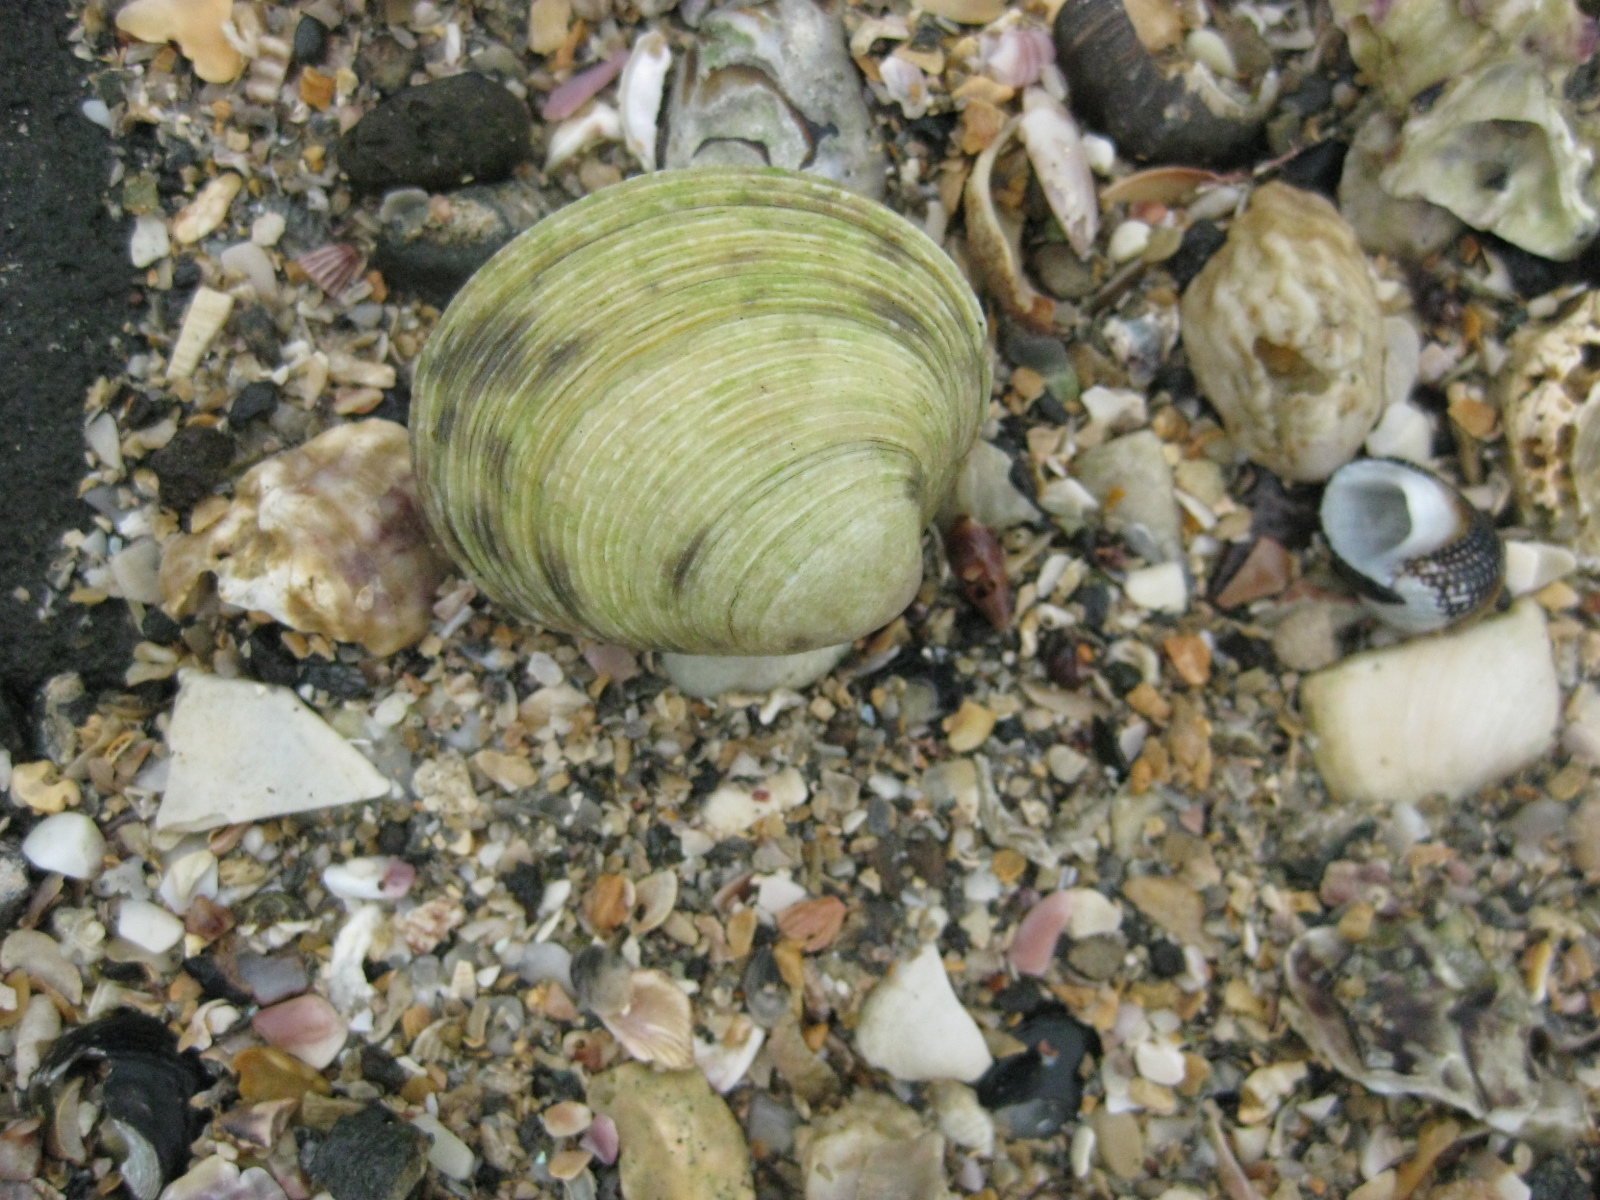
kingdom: Animalia
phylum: Mollusca
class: Bivalvia
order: Venerida
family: Veneridae
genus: Dosina
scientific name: Dosina mactracea
